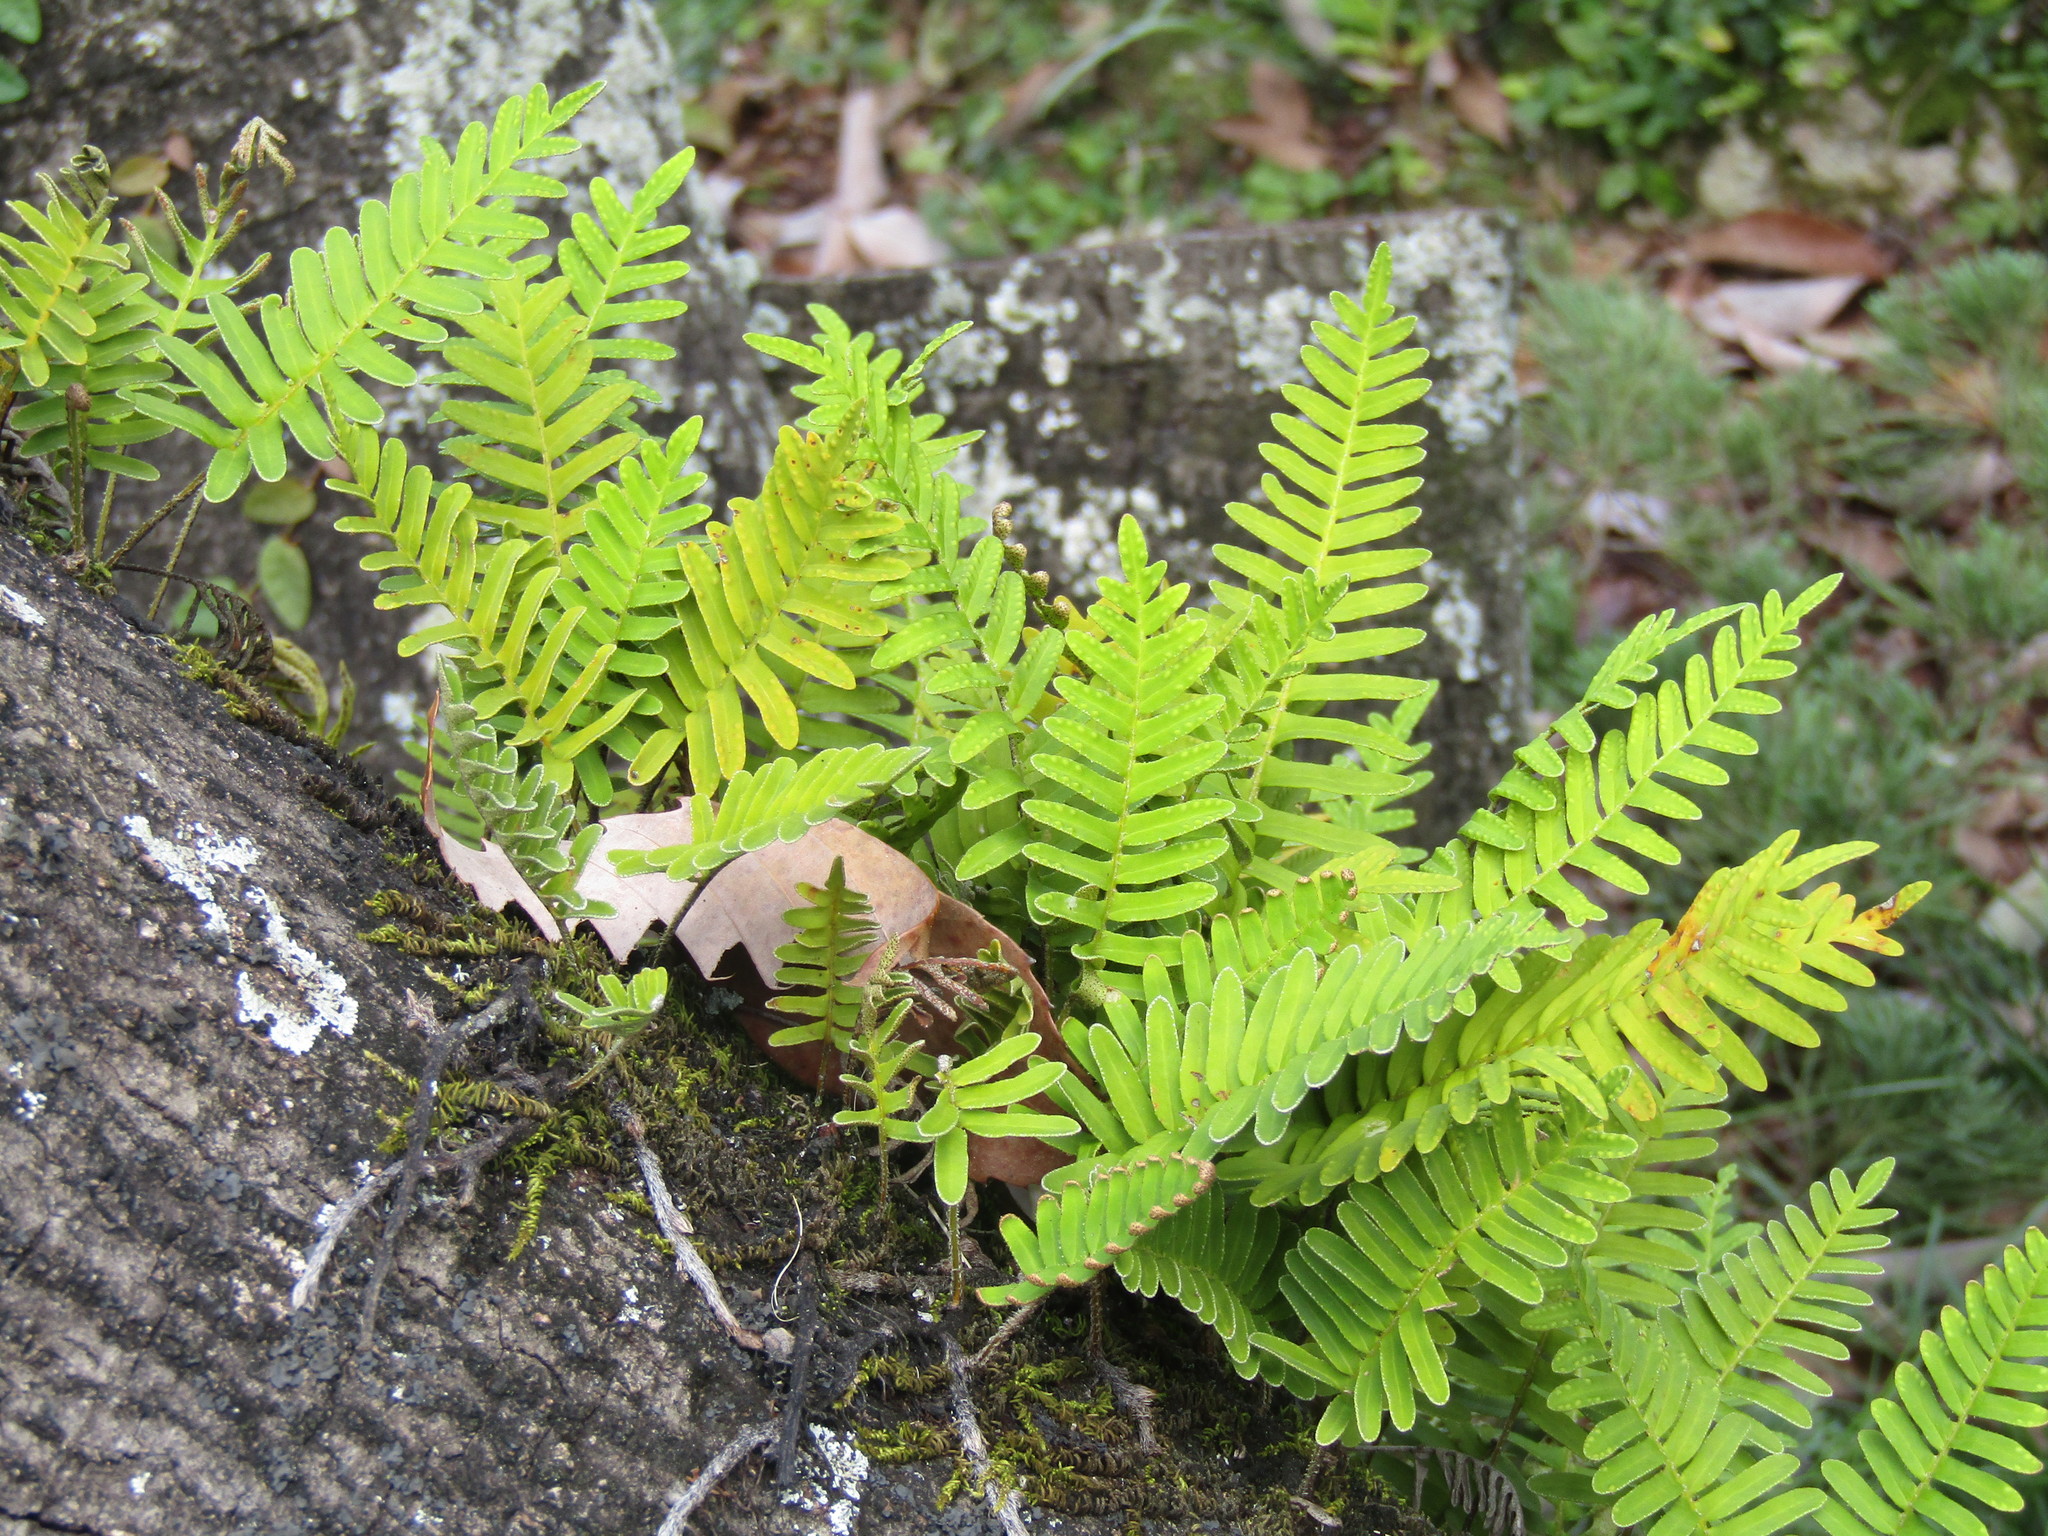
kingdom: Plantae
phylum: Tracheophyta
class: Polypodiopsida
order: Polypodiales
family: Polypodiaceae
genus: Pleopeltis
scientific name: Pleopeltis michauxiana
